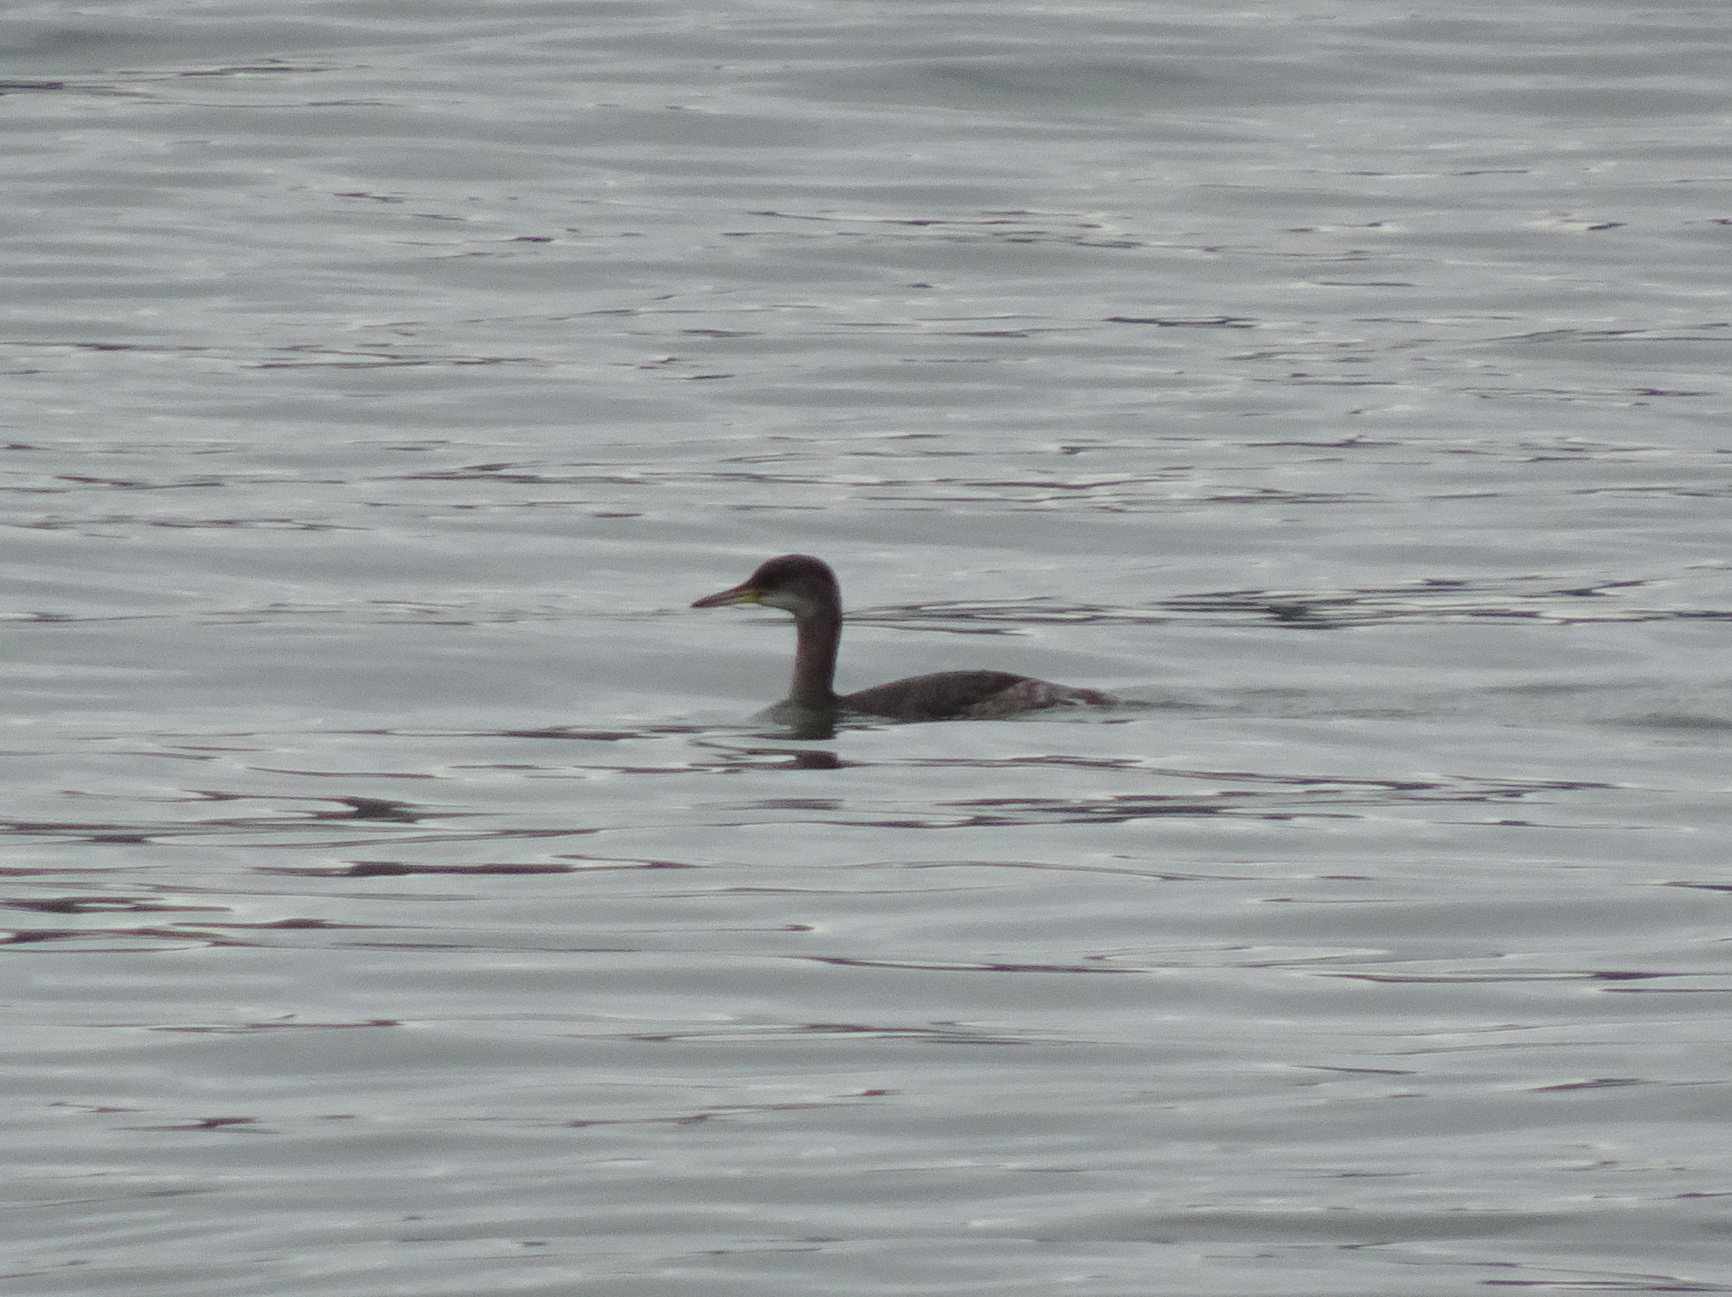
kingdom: Animalia
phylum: Chordata
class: Aves
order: Podicipediformes
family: Podicipedidae
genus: Podiceps
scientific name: Podiceps grisegena
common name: Red-necked grebe
